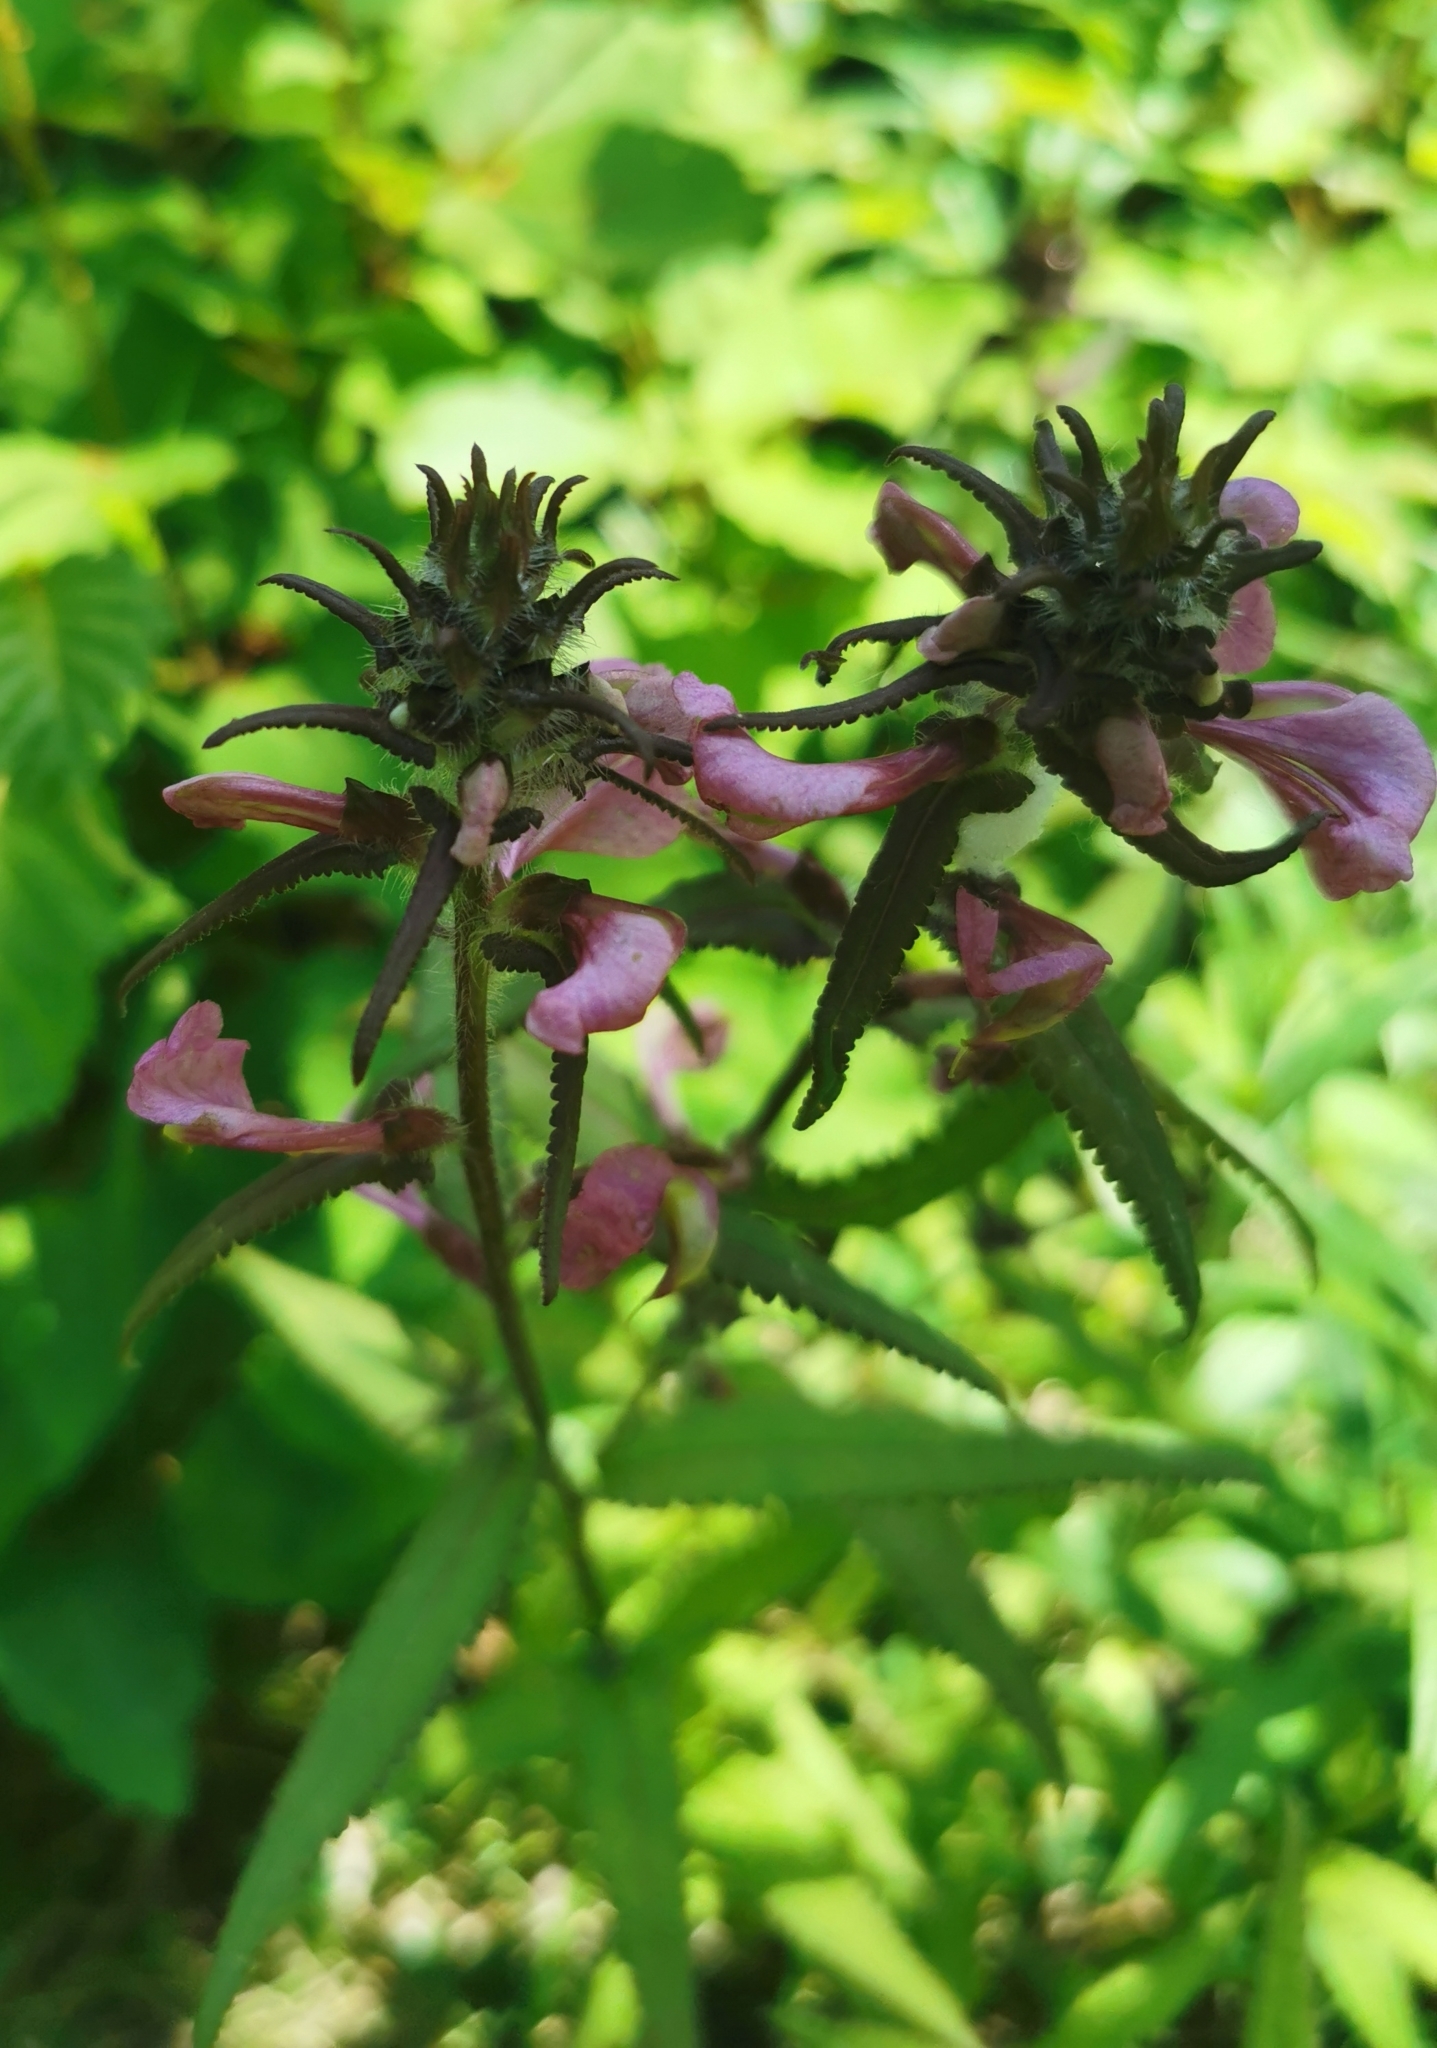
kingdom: Plantae
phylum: Tracheophyta
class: Magnoliopsida
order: Lamiales
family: Orobanchaceae
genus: Pedicularis
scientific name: Pedicularis resupinata
